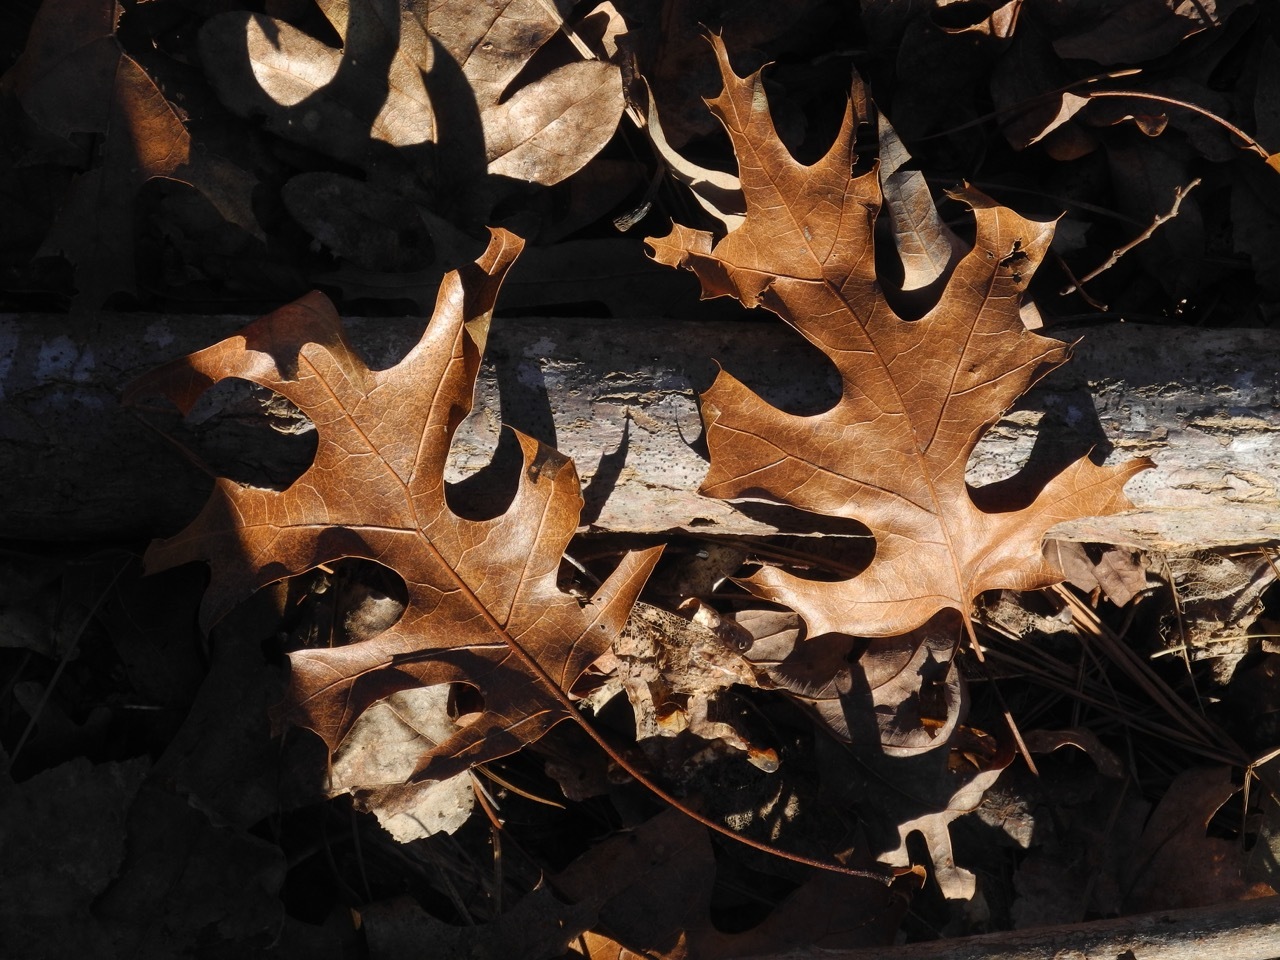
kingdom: Plantae
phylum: Tracheophyta
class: Magnoliopsida
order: Fagales
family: Fagaceae
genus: Quercus
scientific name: Quercus coccinea
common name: Scarlet oak
